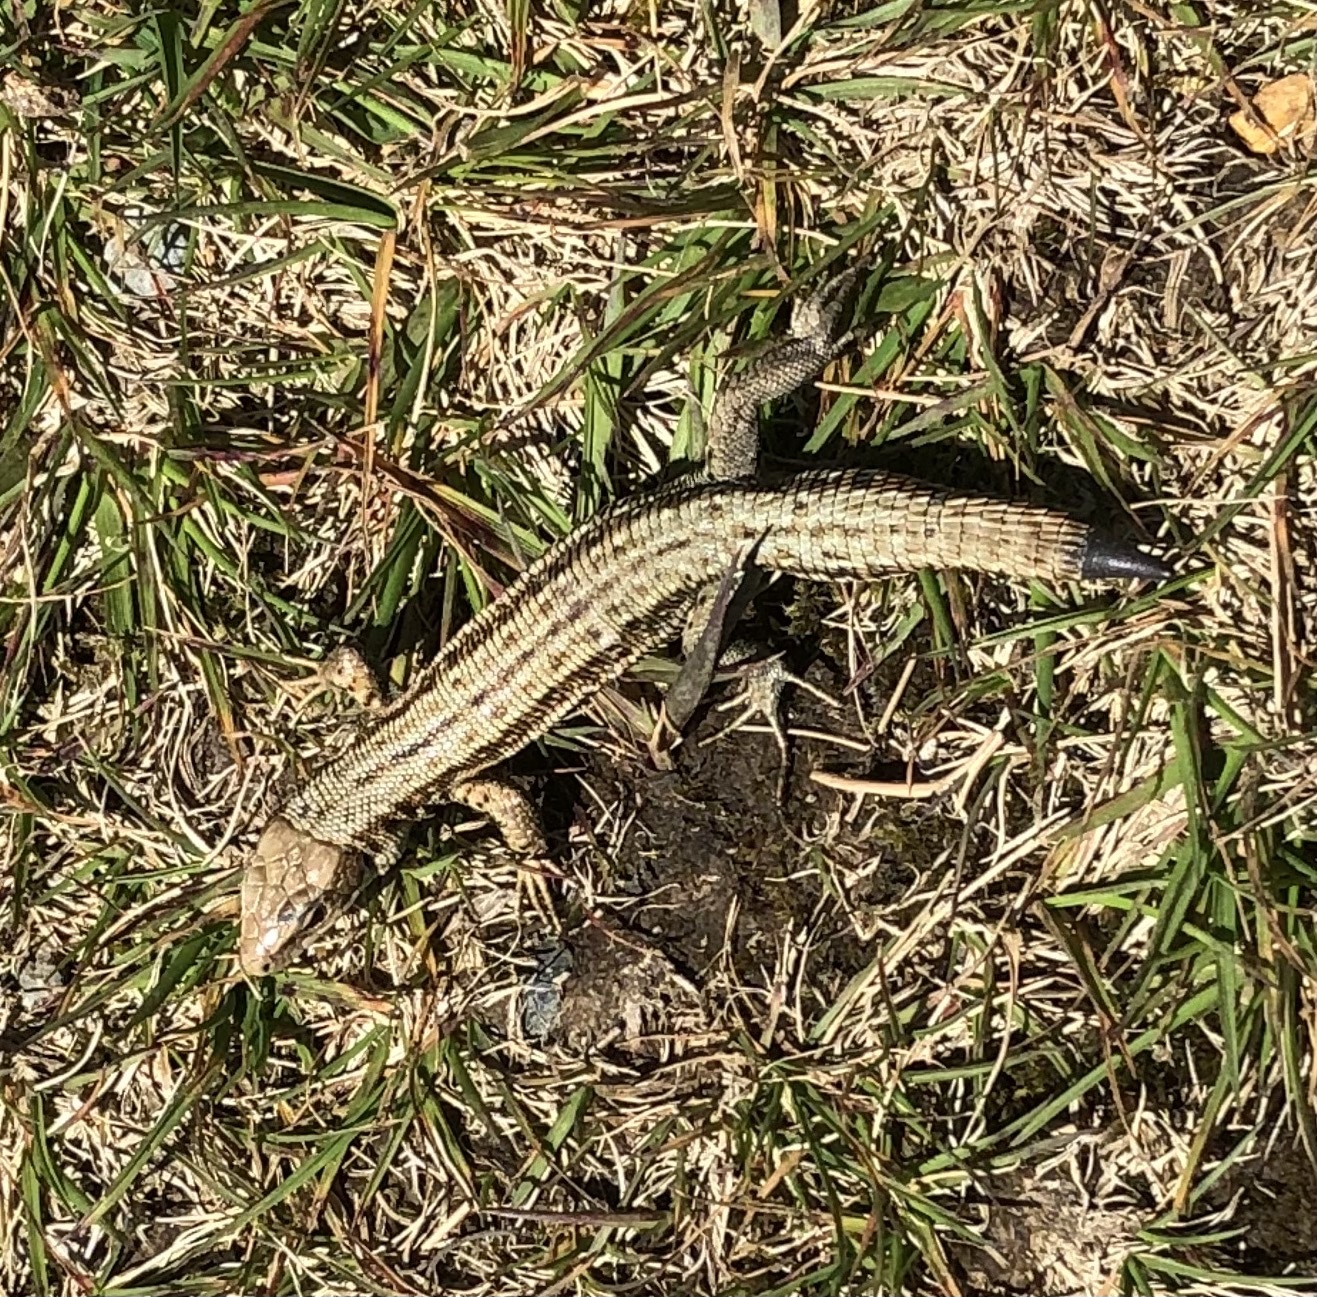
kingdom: Animalia
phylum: Chordata
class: Squamata
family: Lacertidae
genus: Zootoca
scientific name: Zootoca vivipara
